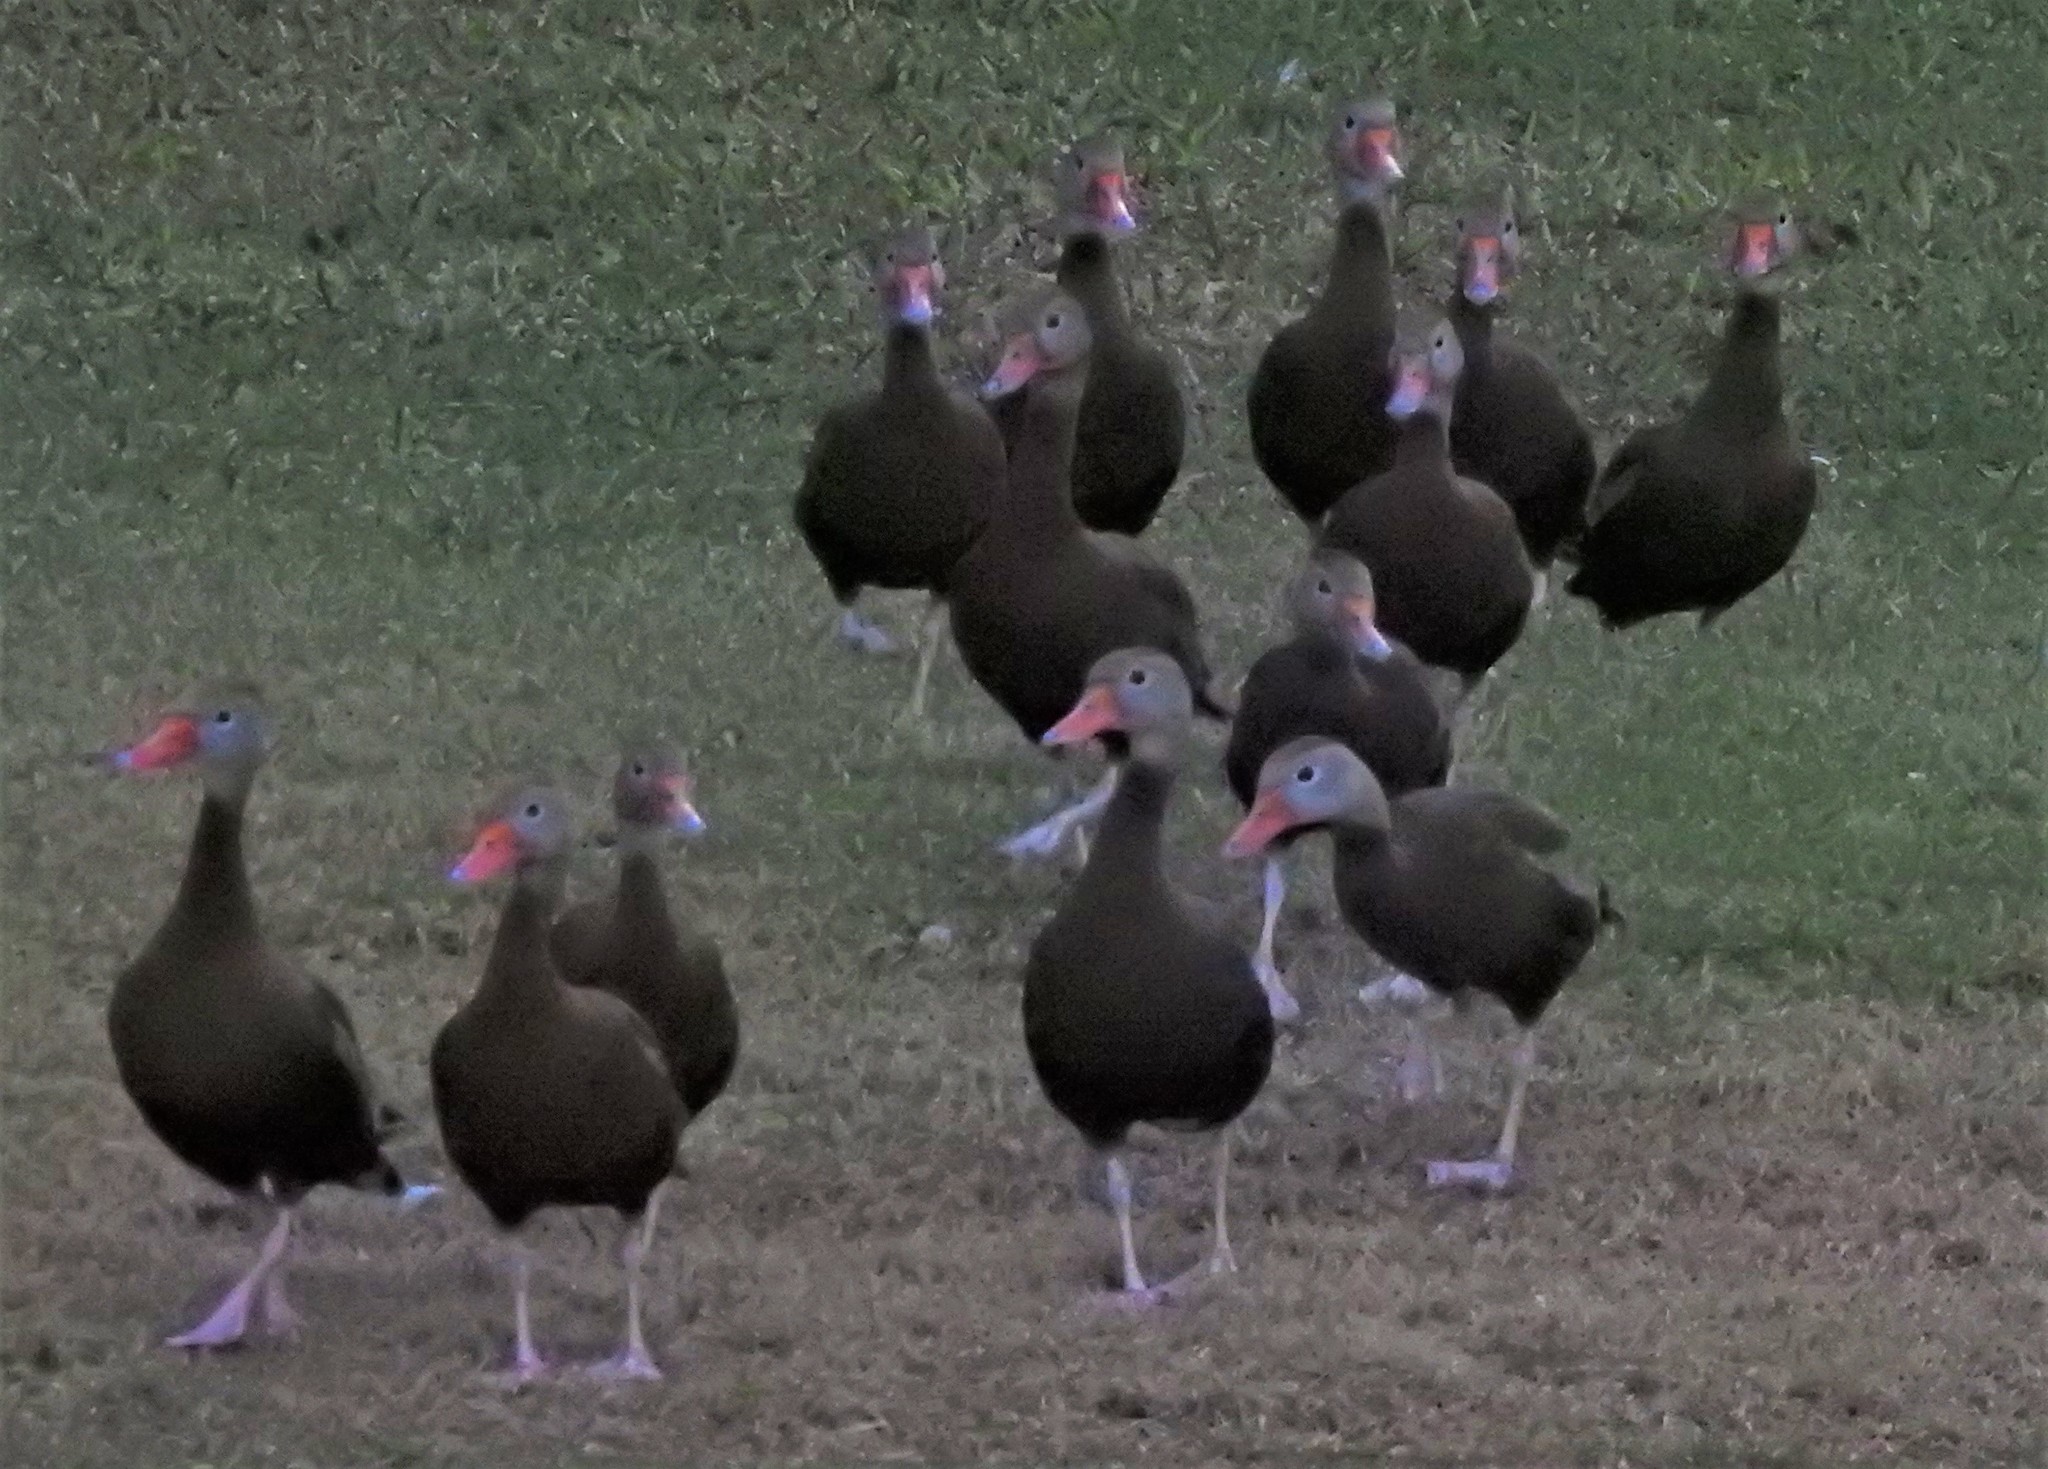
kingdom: Animalia
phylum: Chordata
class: Aves
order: Anseriformes
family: Anatidae
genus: Dendrocygna
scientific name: Dendrocygna autumnalis
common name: Black-bellied whistling duck
